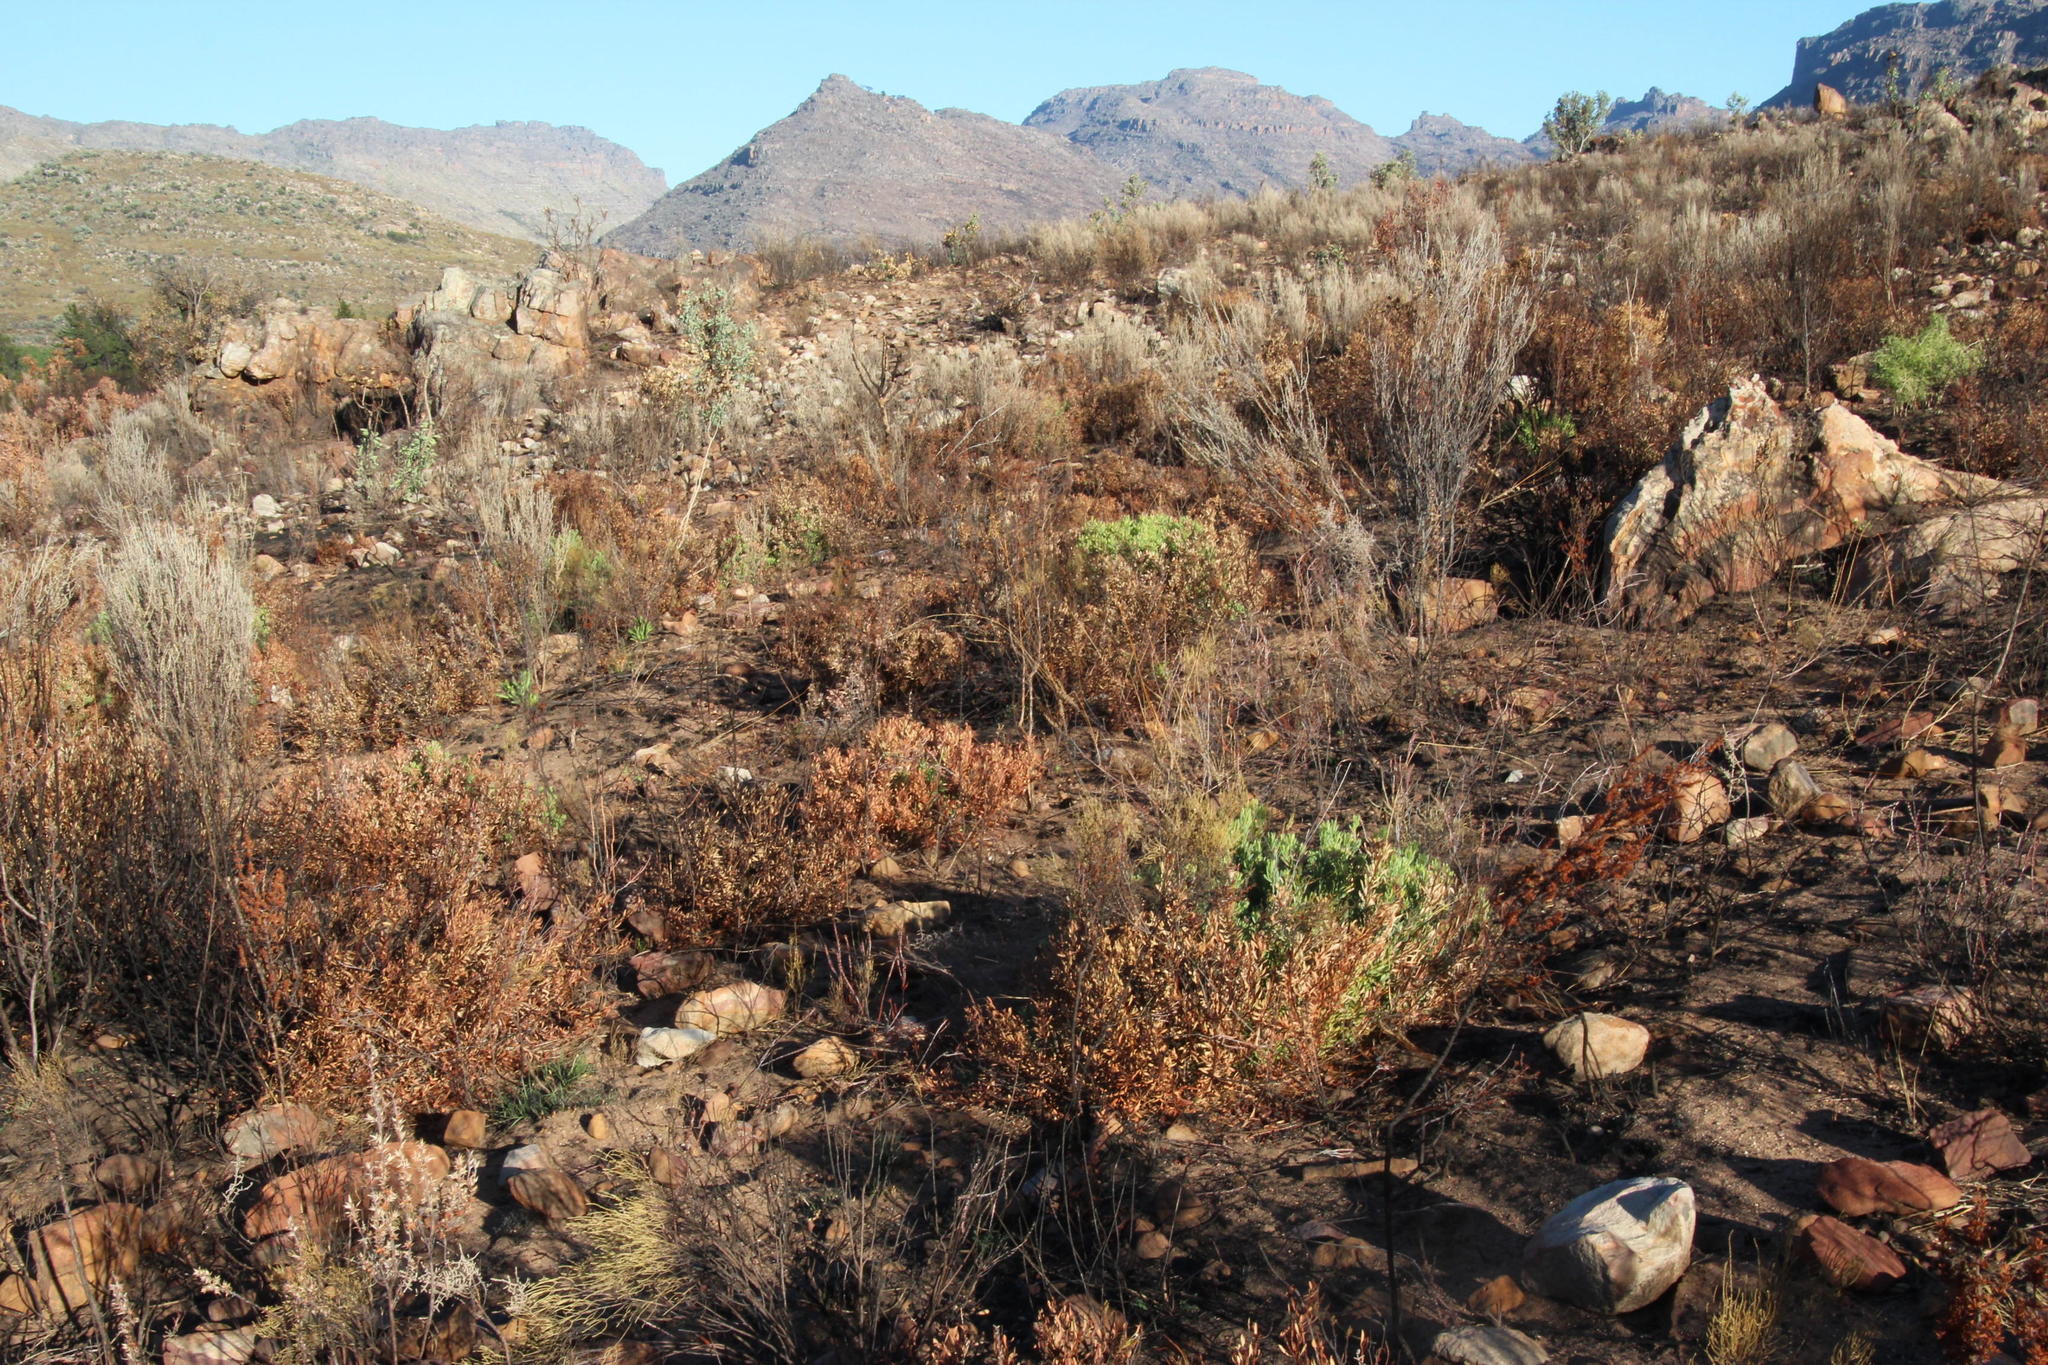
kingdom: Plantae
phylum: Tracheophyta
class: Magnoliopsida
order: Proteales
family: Proteaceae
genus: Leucadendron
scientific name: Leucadendron glaberrimum
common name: Common oily conebush
